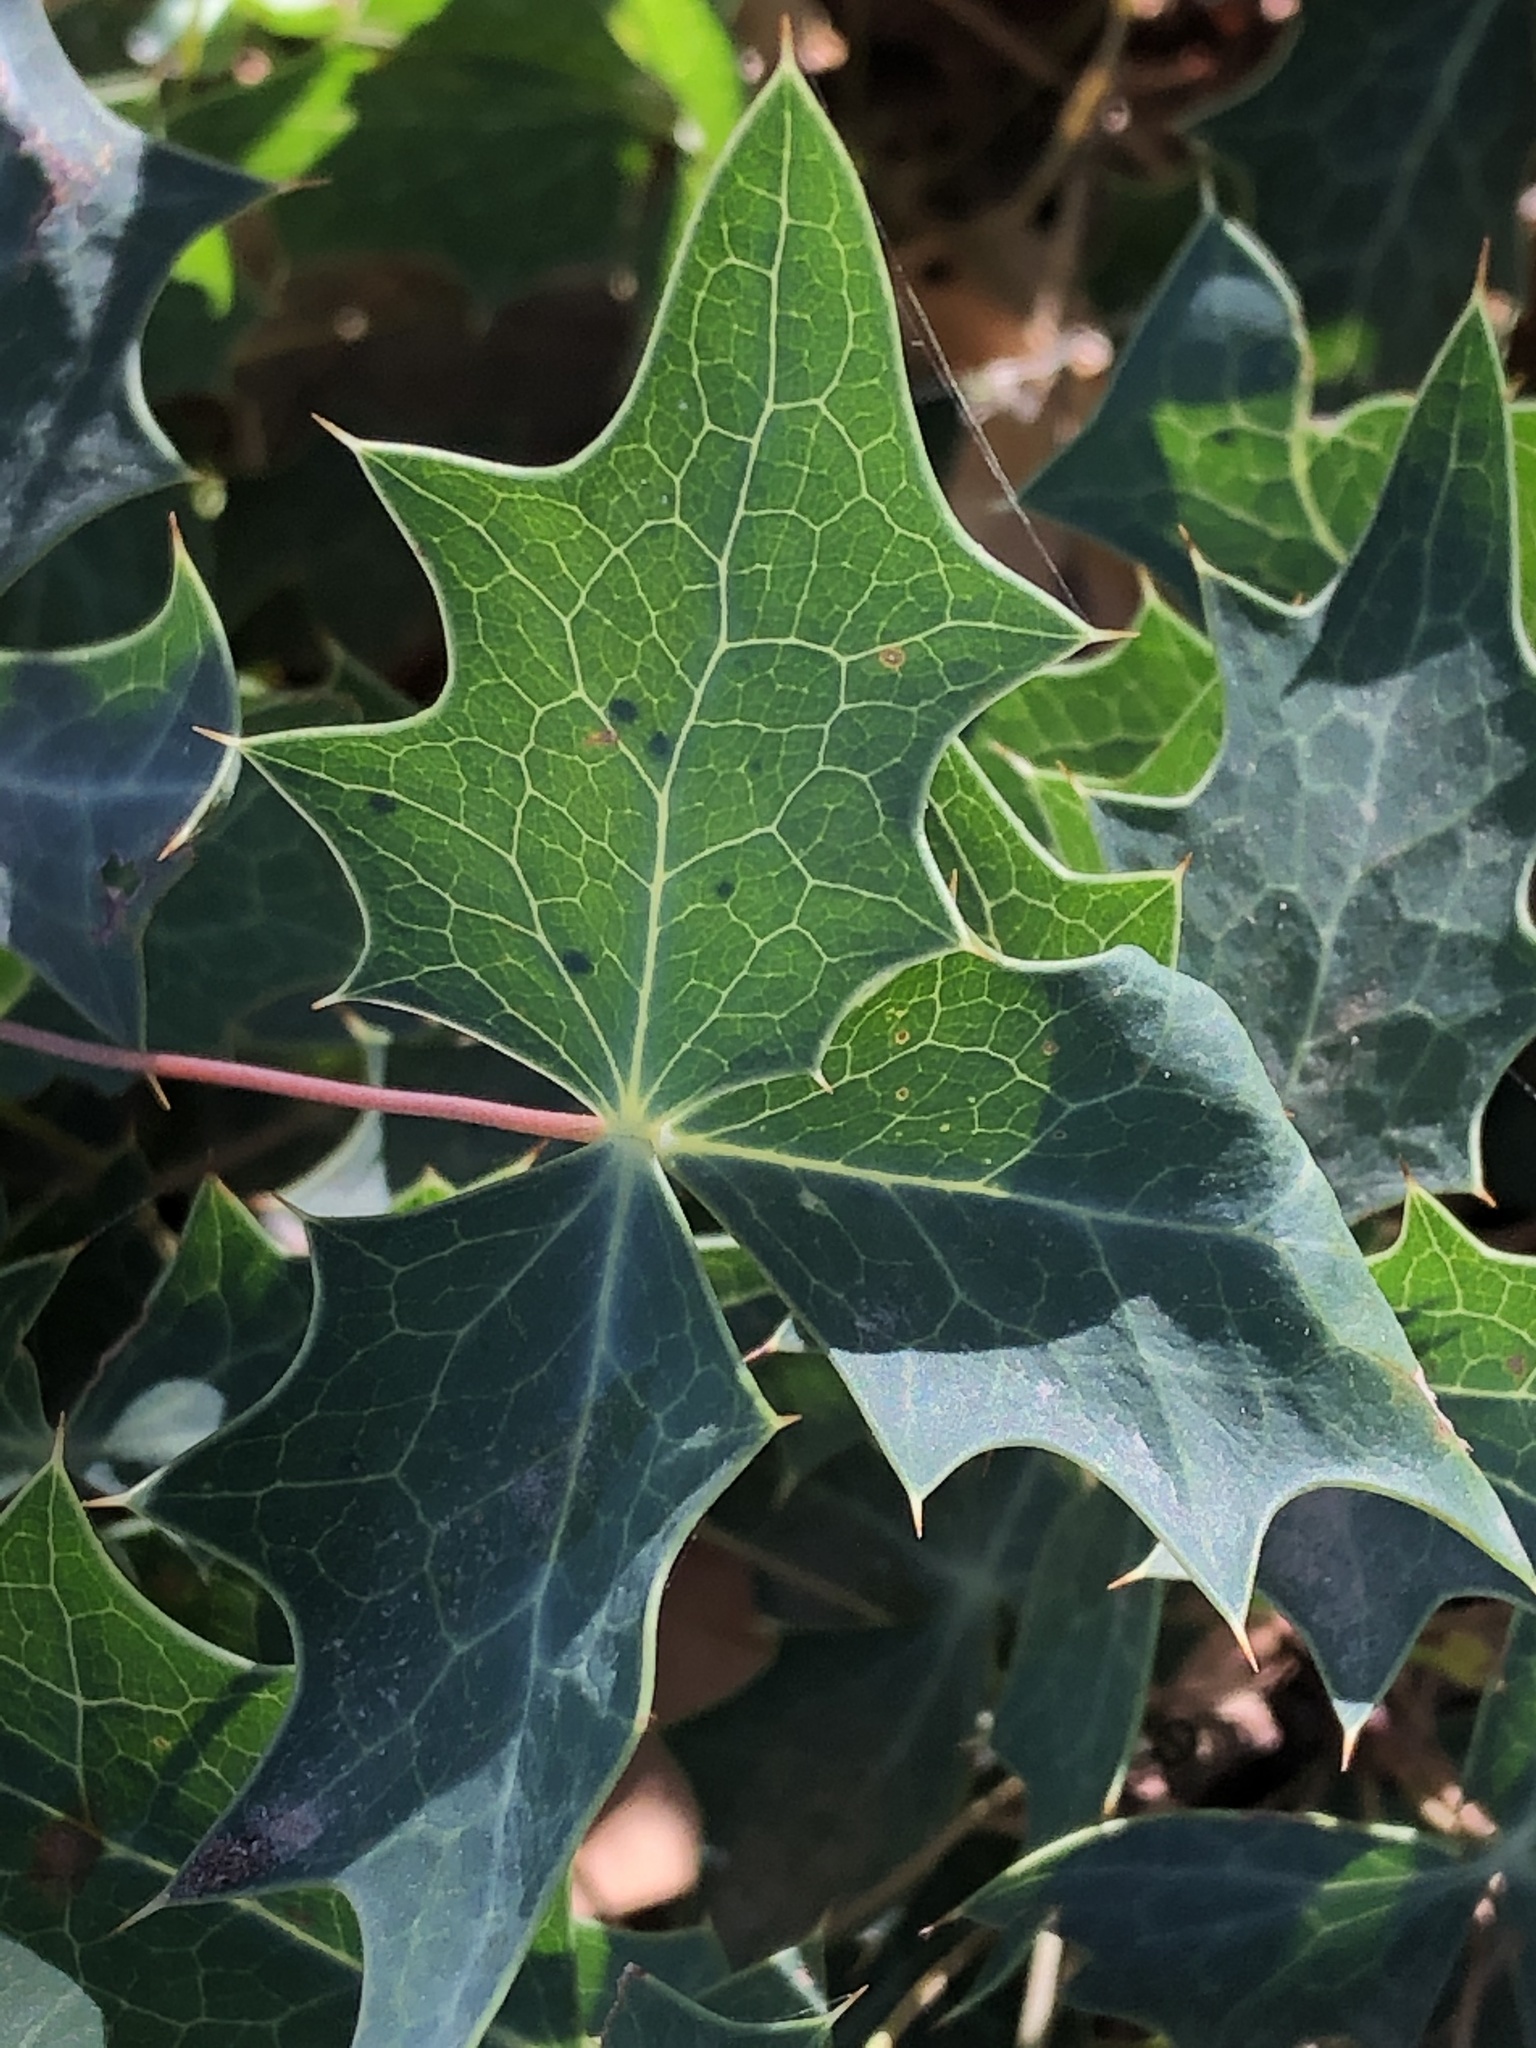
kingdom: Plantae
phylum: Tracheophyta
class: Magnoliopsida
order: Ranunculales
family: Berberidaceae
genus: Alloberberis
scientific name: Alloberberis trifoliolata
